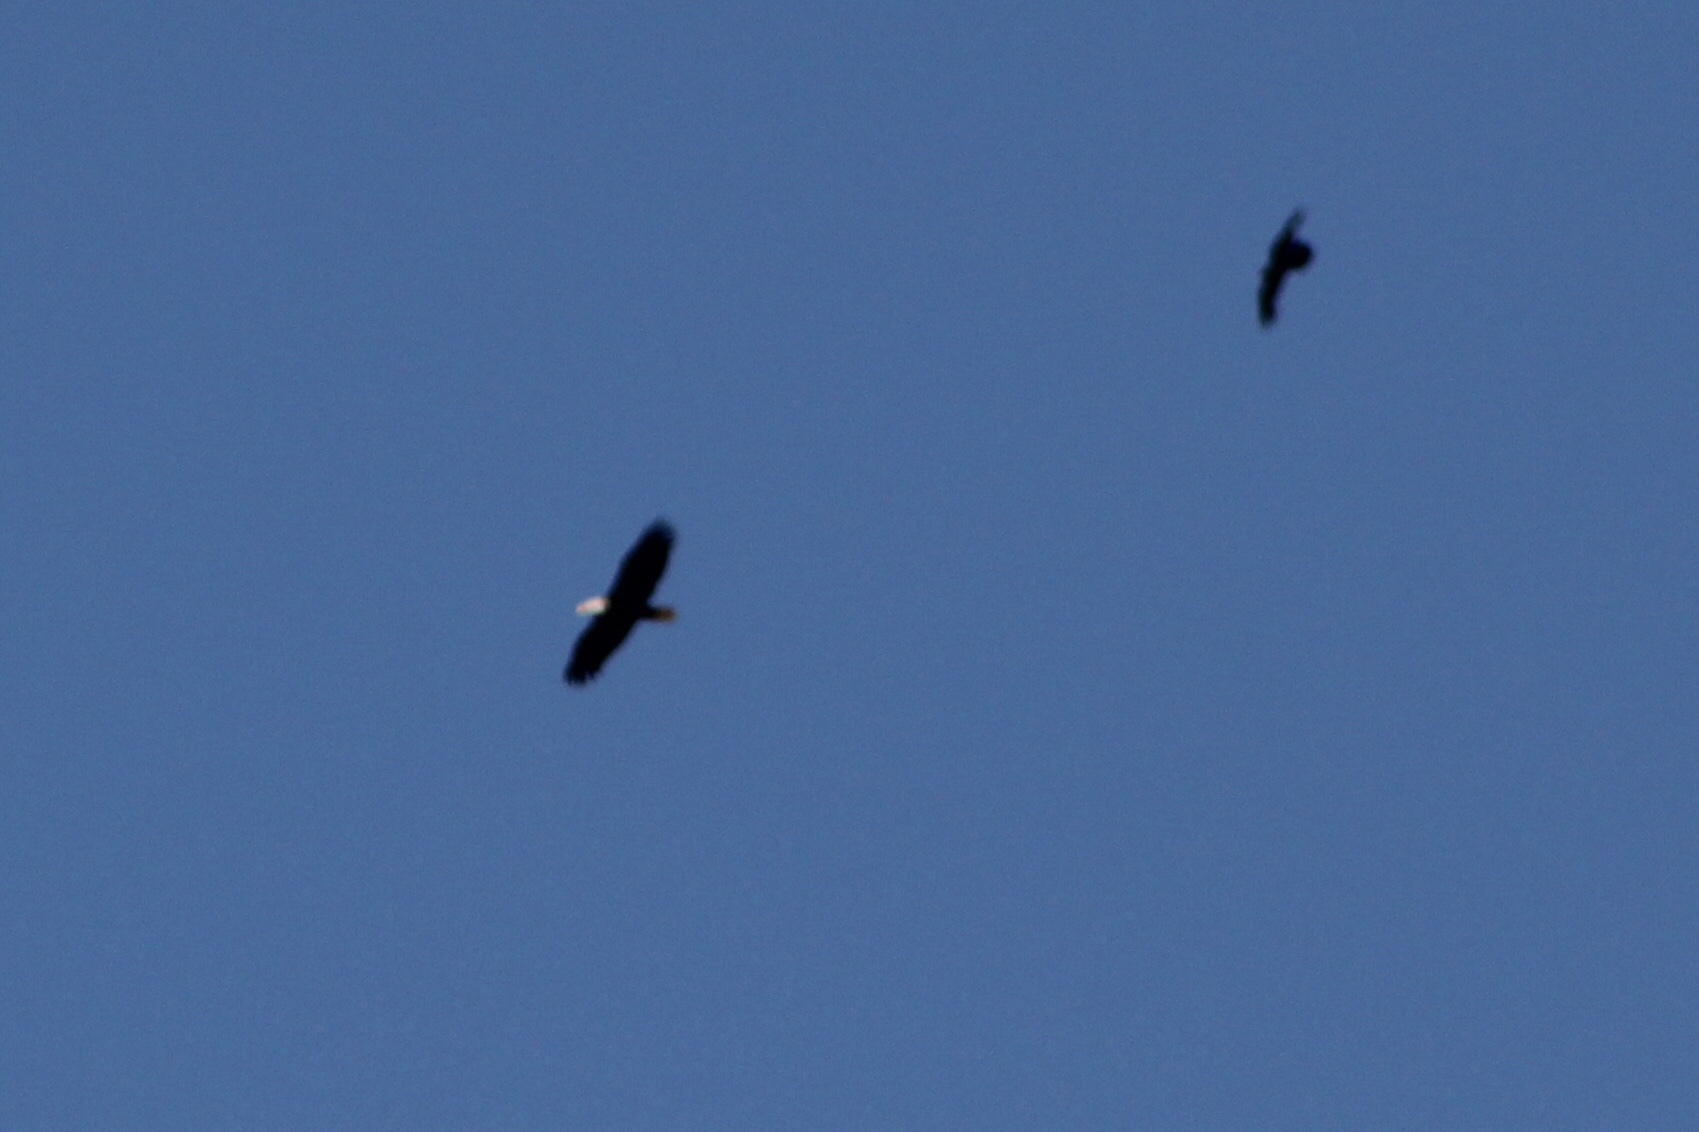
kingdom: Animalia
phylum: Chordata
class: Aves
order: Accipitriformes
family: Accipitridae
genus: Haliaeetus
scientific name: Haliaeetus leucocephalus
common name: Bald eagle
